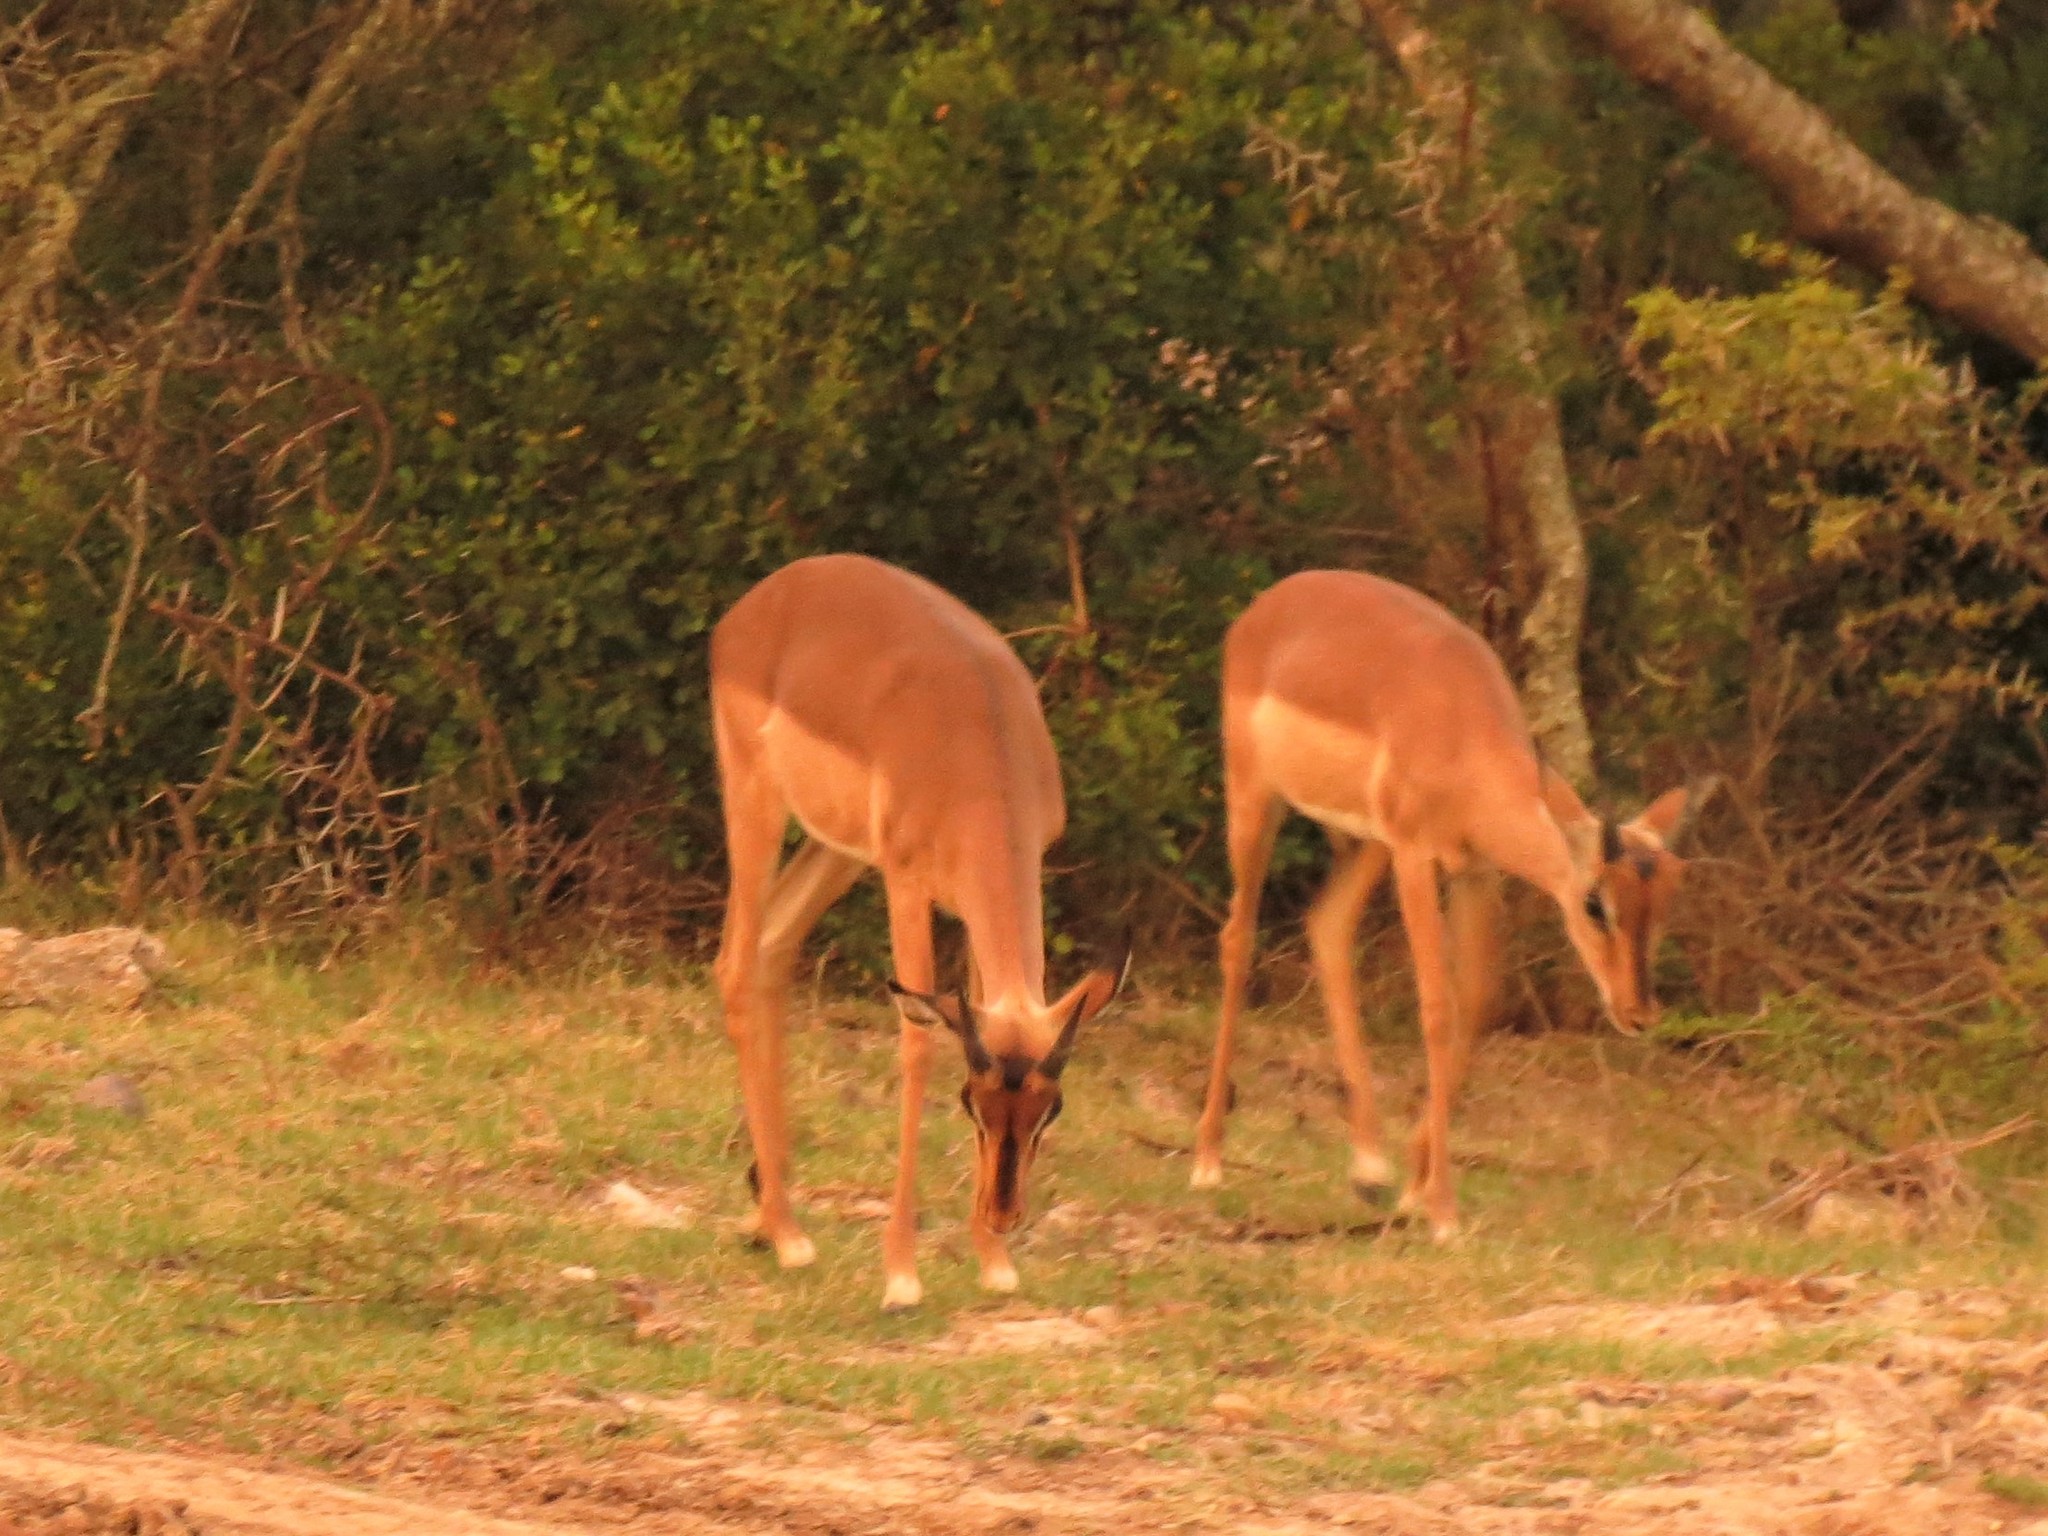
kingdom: Animalia
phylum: Chordata
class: Mammalia
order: Artiodactyla
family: Bovidae
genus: Aepyceros
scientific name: Aepyceros melampus
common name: Impala
